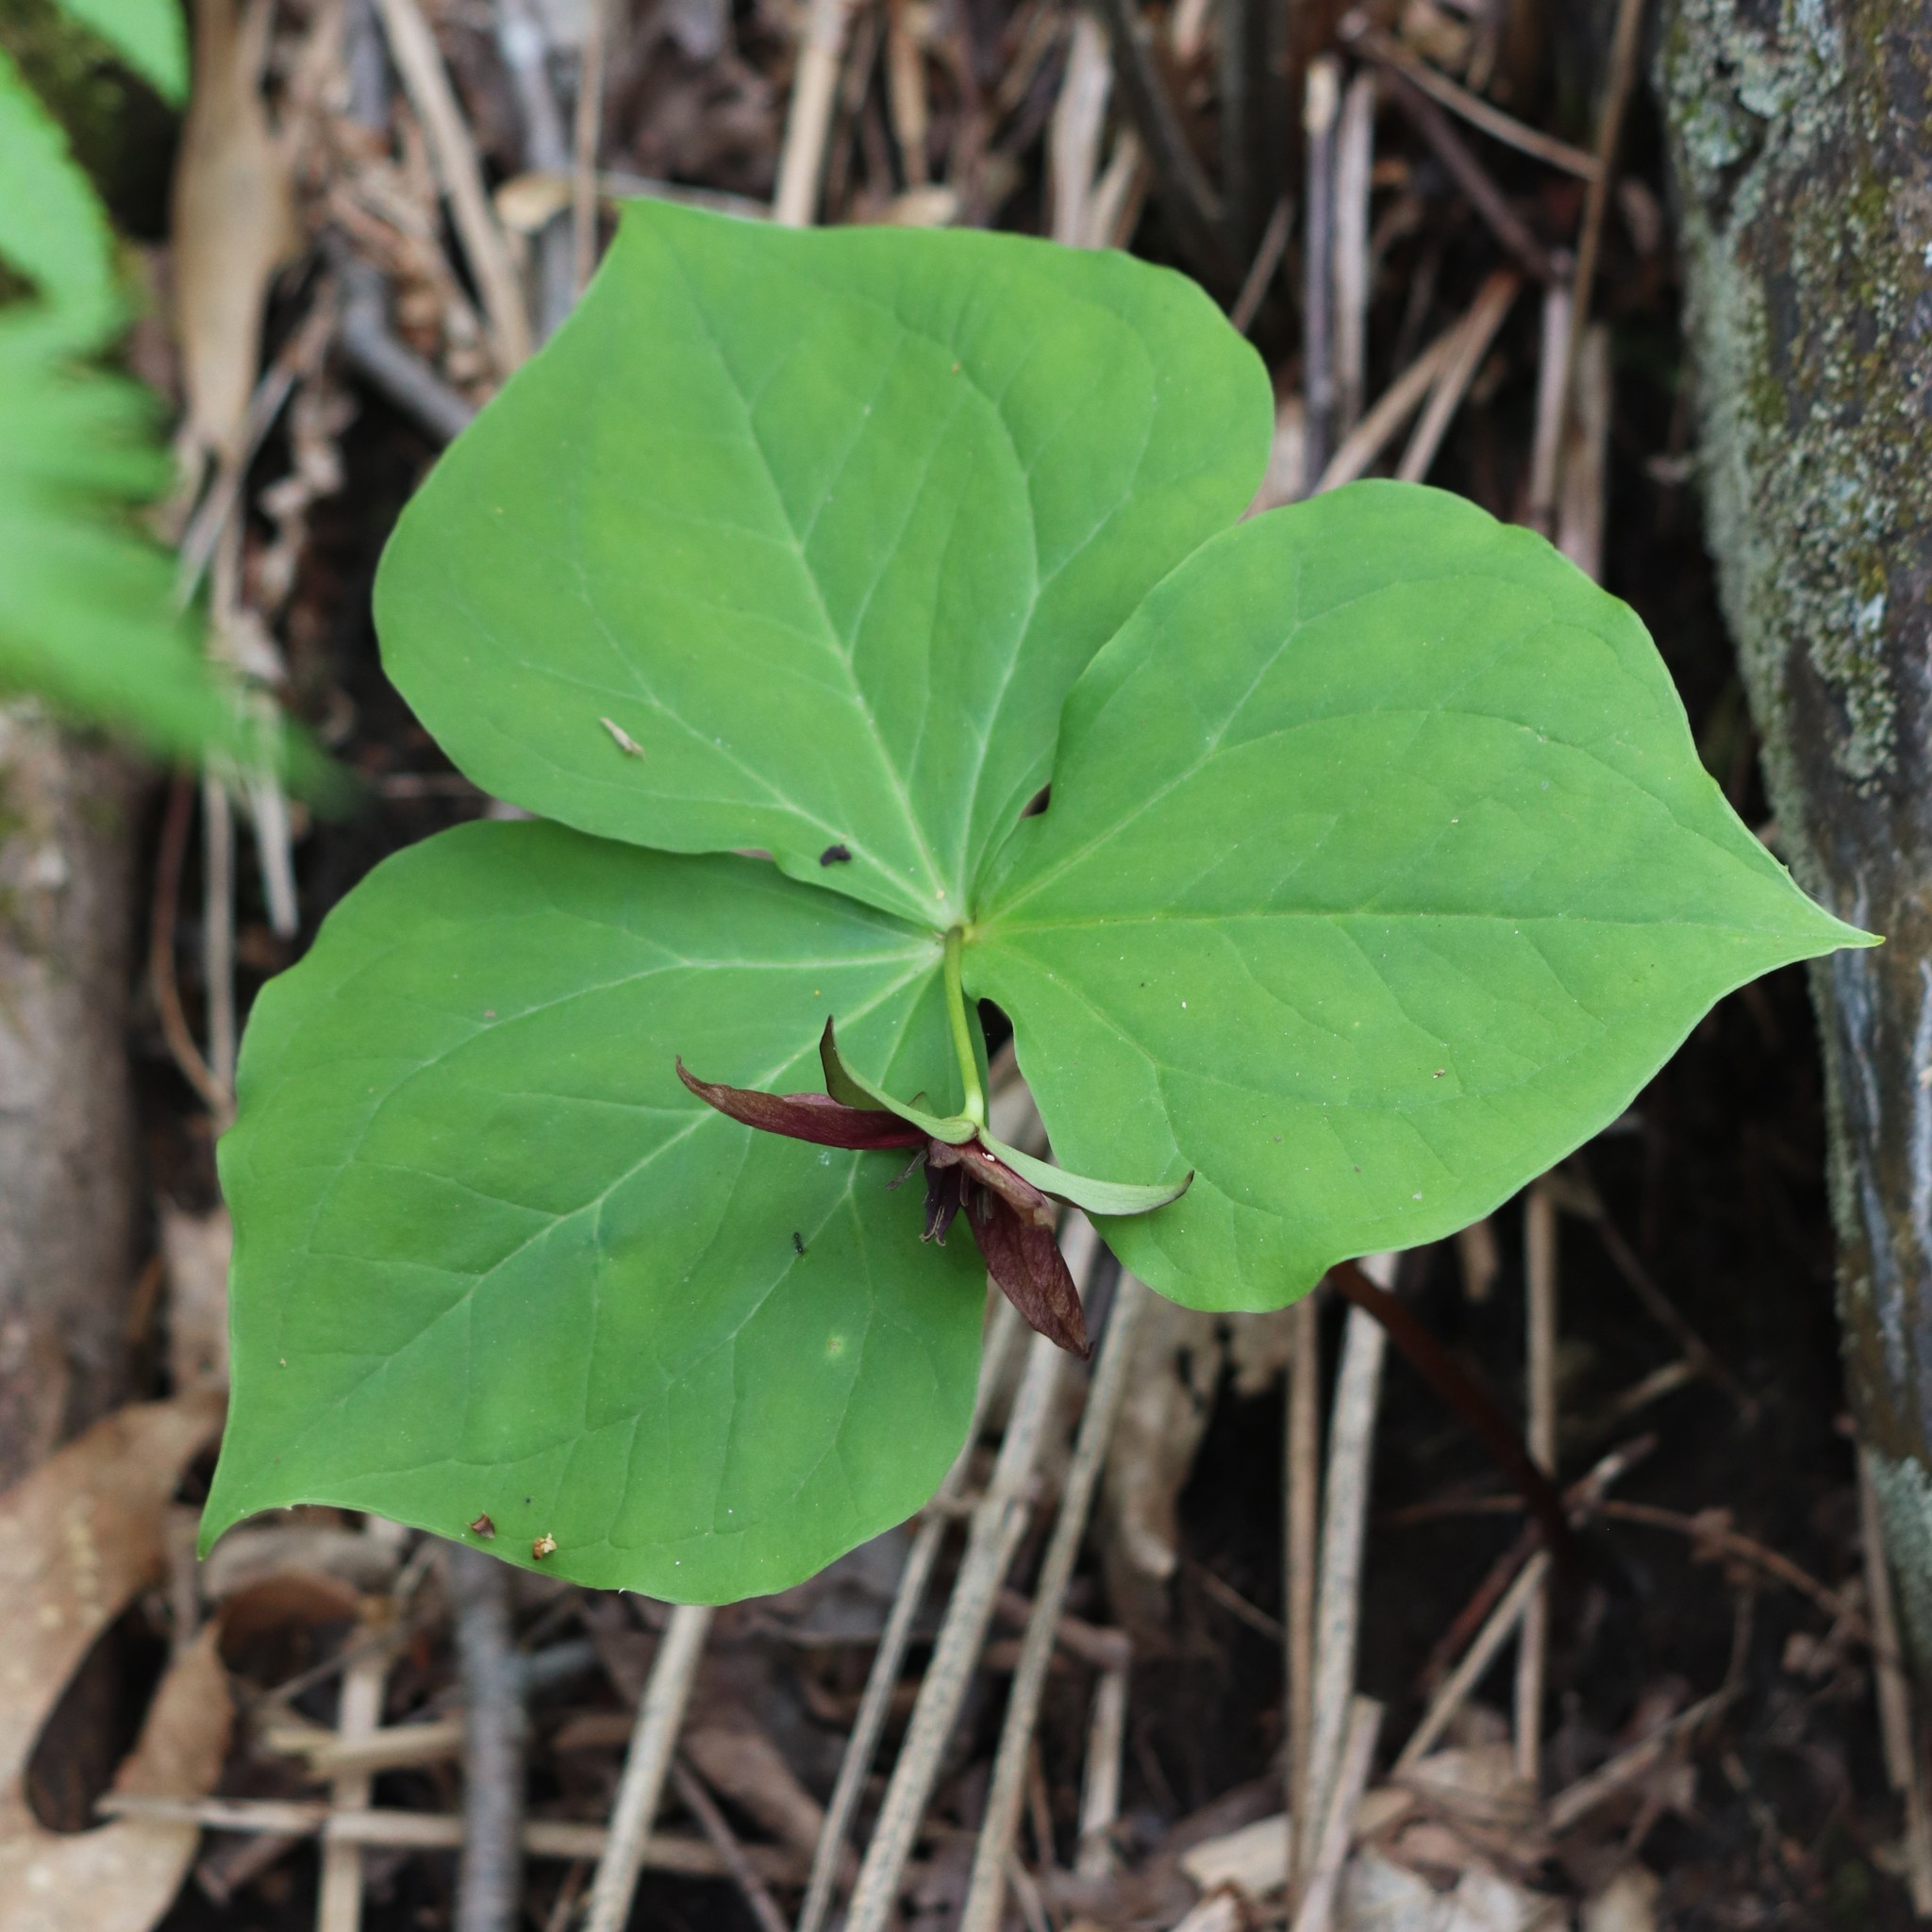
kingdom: Plantae
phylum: Tracheophyta
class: Liliopsida
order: Liliales
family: Melanthiaceae
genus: Trillium
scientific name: Trillium erectum
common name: Purple trillium
